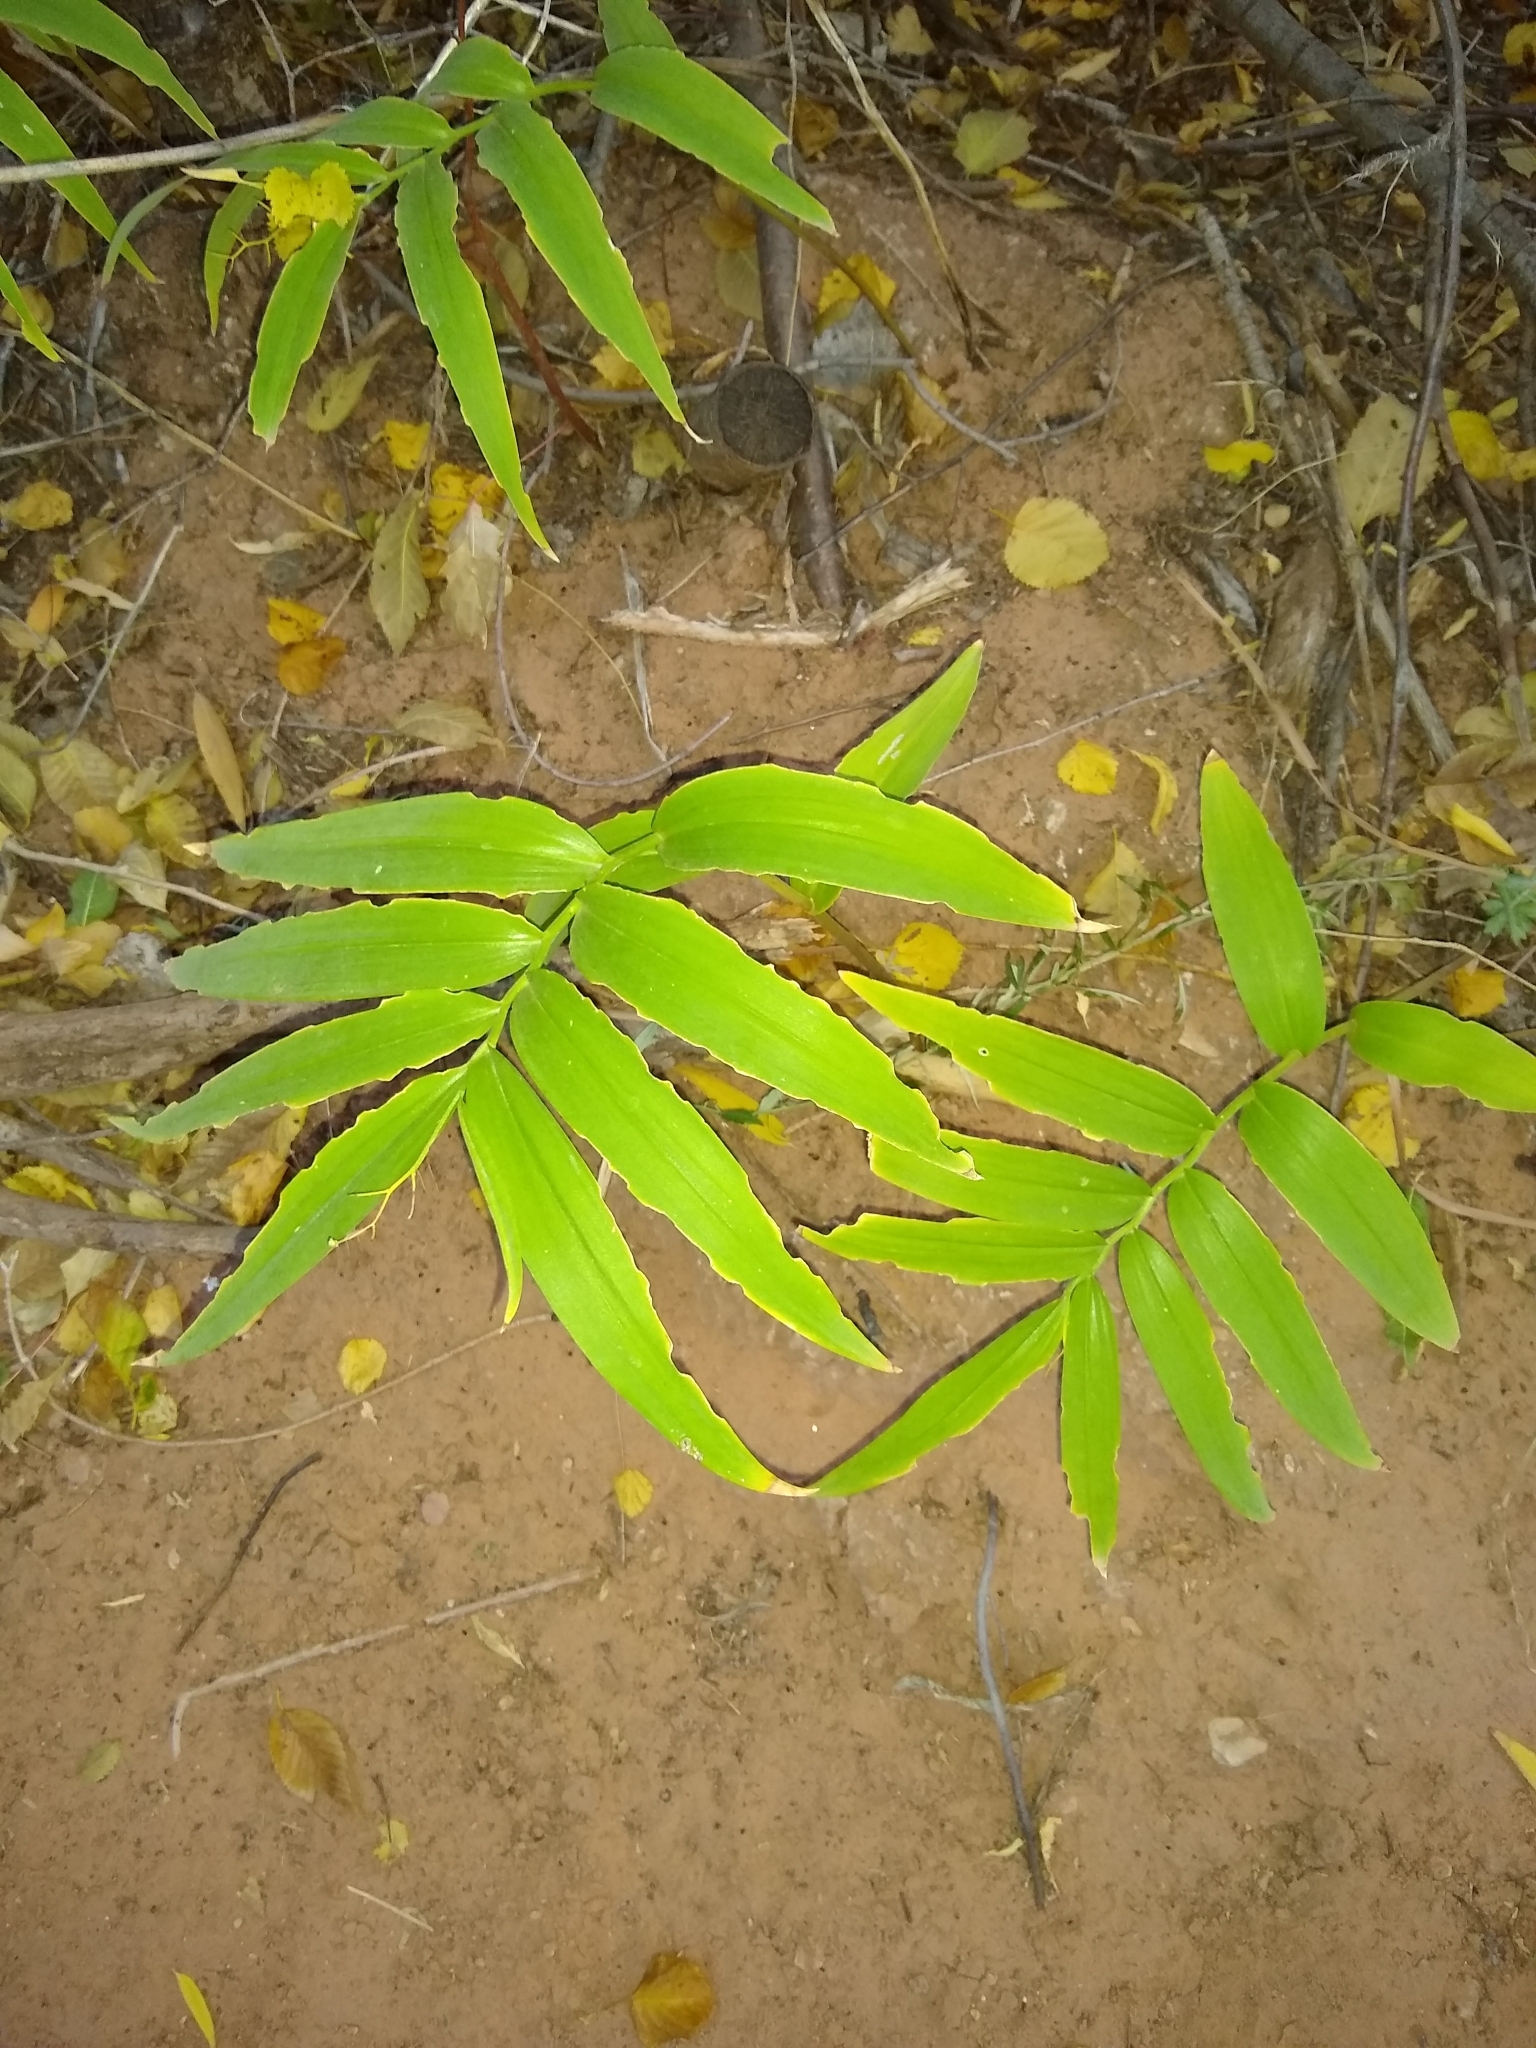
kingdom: Plantae
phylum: Tracheophyta
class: Liliopsida
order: Asparagales
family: Asparagaceae
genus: Maianthemum
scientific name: Maianthemum stellatum
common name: Little false solomon's seal
